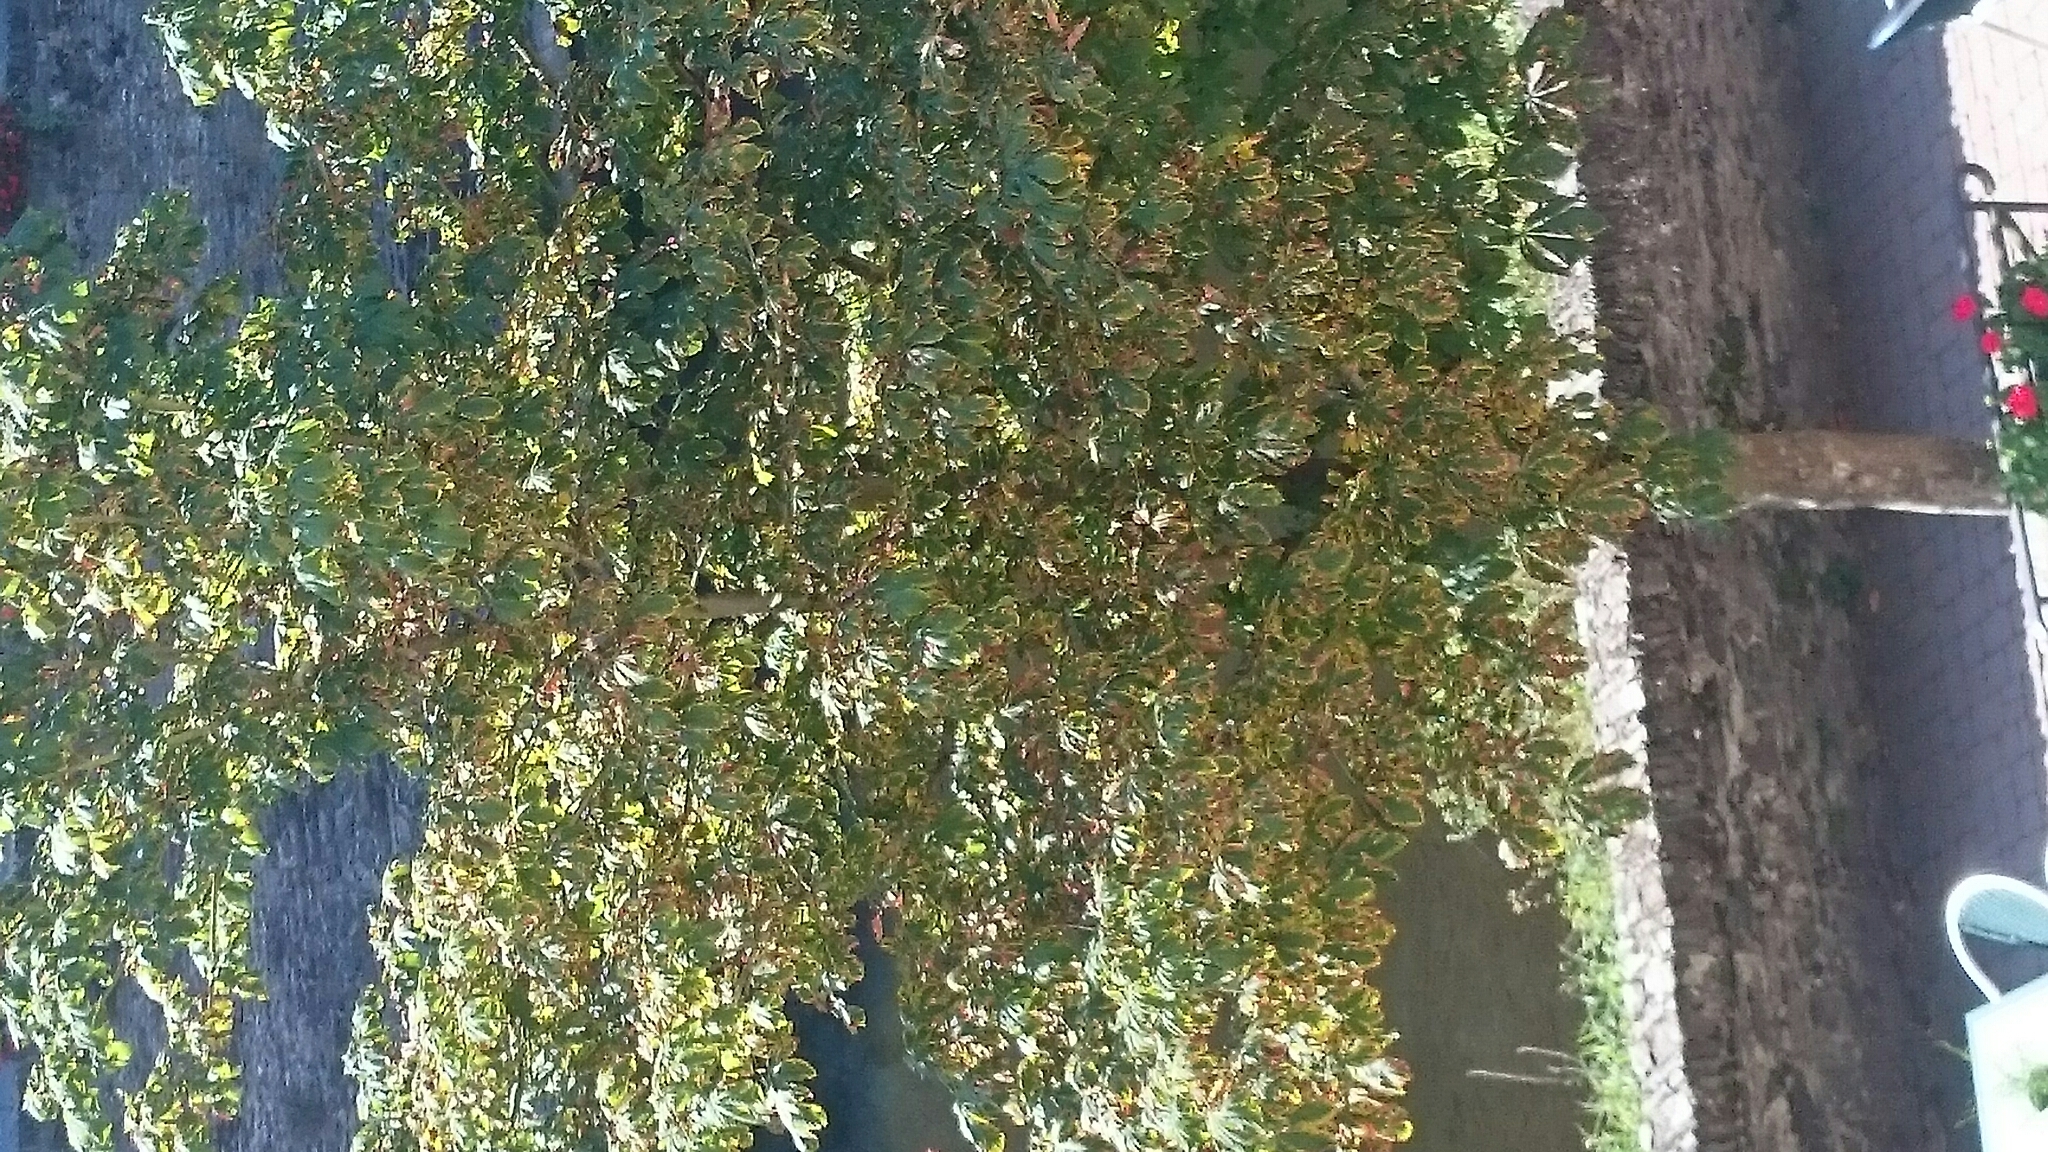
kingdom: Animalia
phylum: Arthropoda
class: Insecta
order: Lepidoptera
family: Gracillariidae
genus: Cameraria
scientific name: Cameraria ohridella
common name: Horse-chestnut leaf-miner
